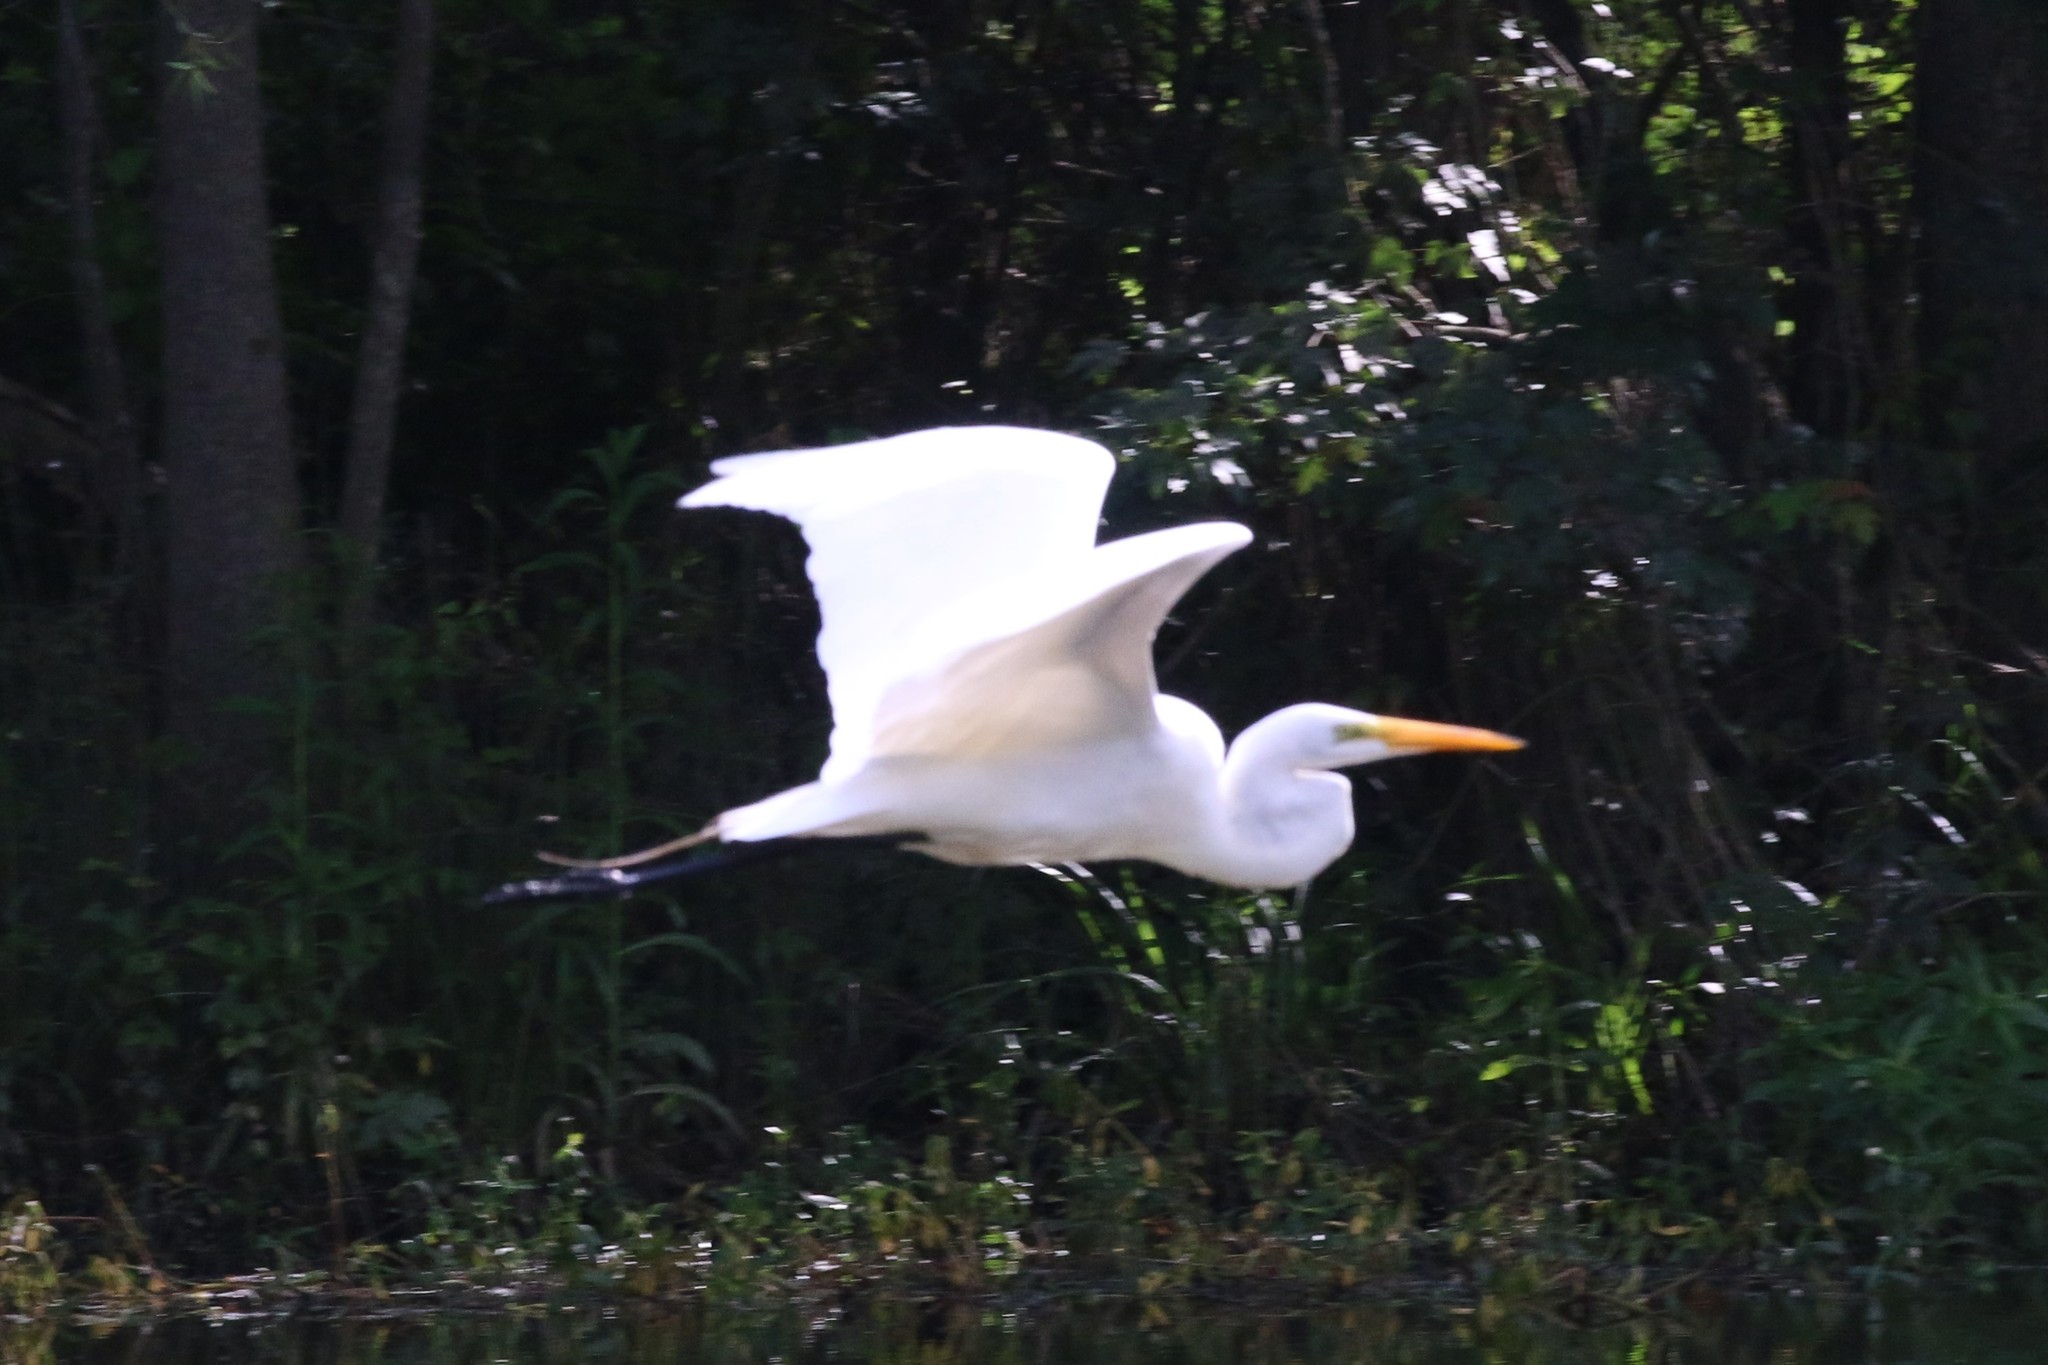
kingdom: Animalia
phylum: Chordata
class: Aves
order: Pelecaniformes
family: Ardeidae
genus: Ardea
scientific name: Ardea alba
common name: Great egret
